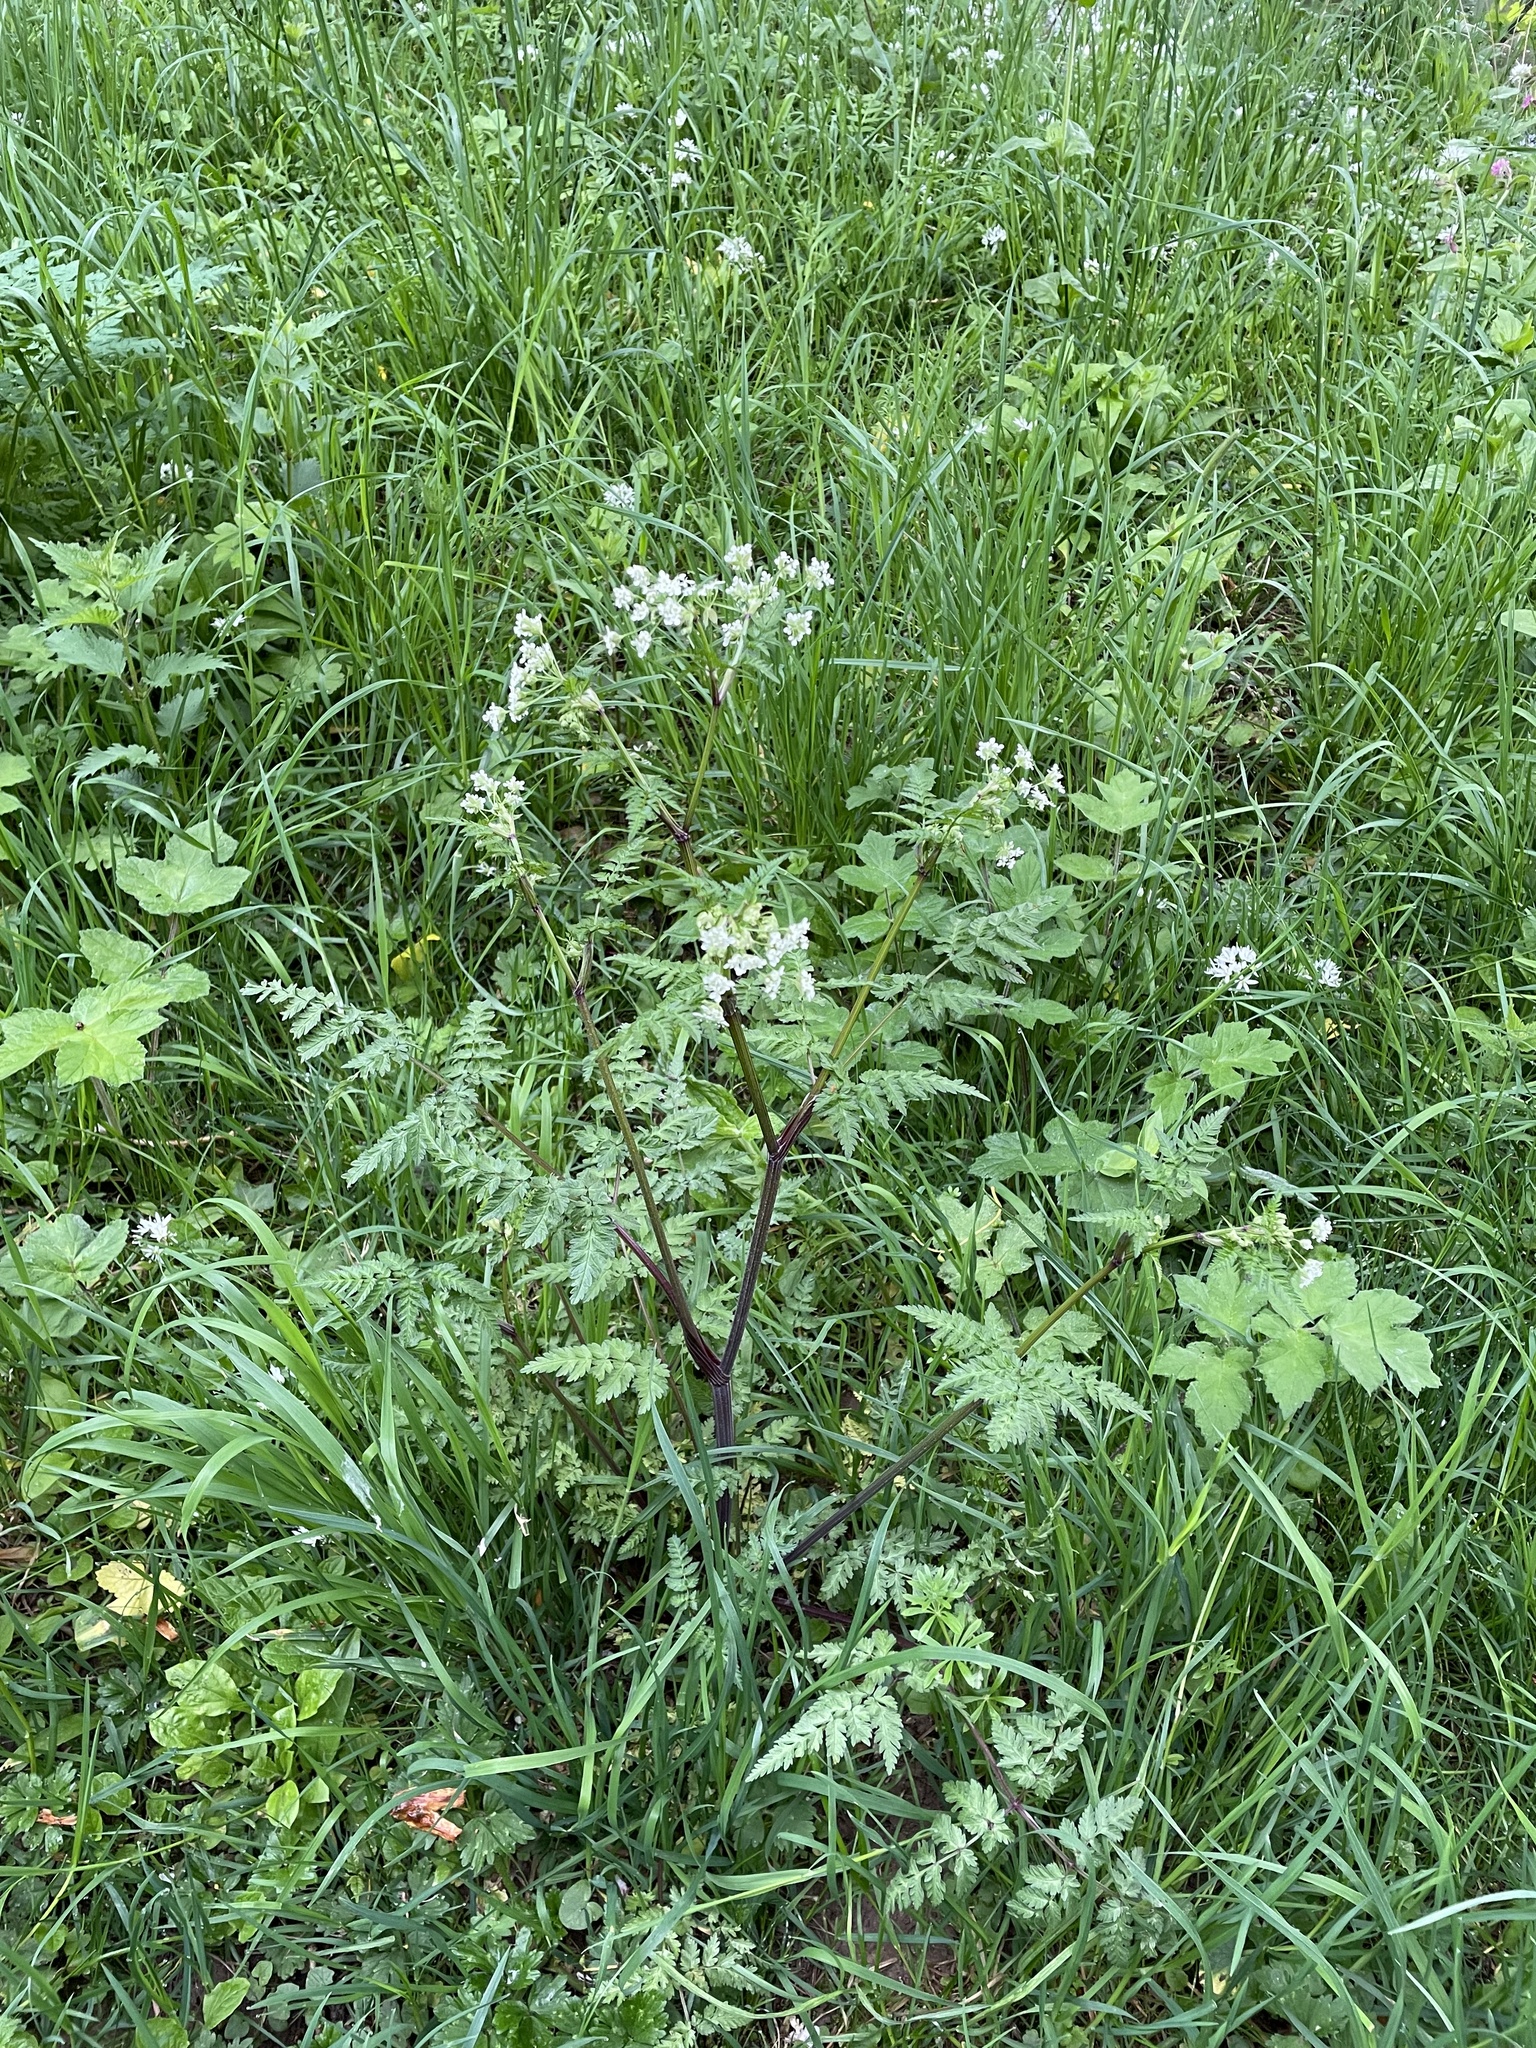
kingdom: Plantae
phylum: Tracheophyta
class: Magnoliopsida
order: Apiales
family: Apiaceae
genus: Anthriscus
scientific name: Anthriscus sylvestris
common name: Cow parsley
